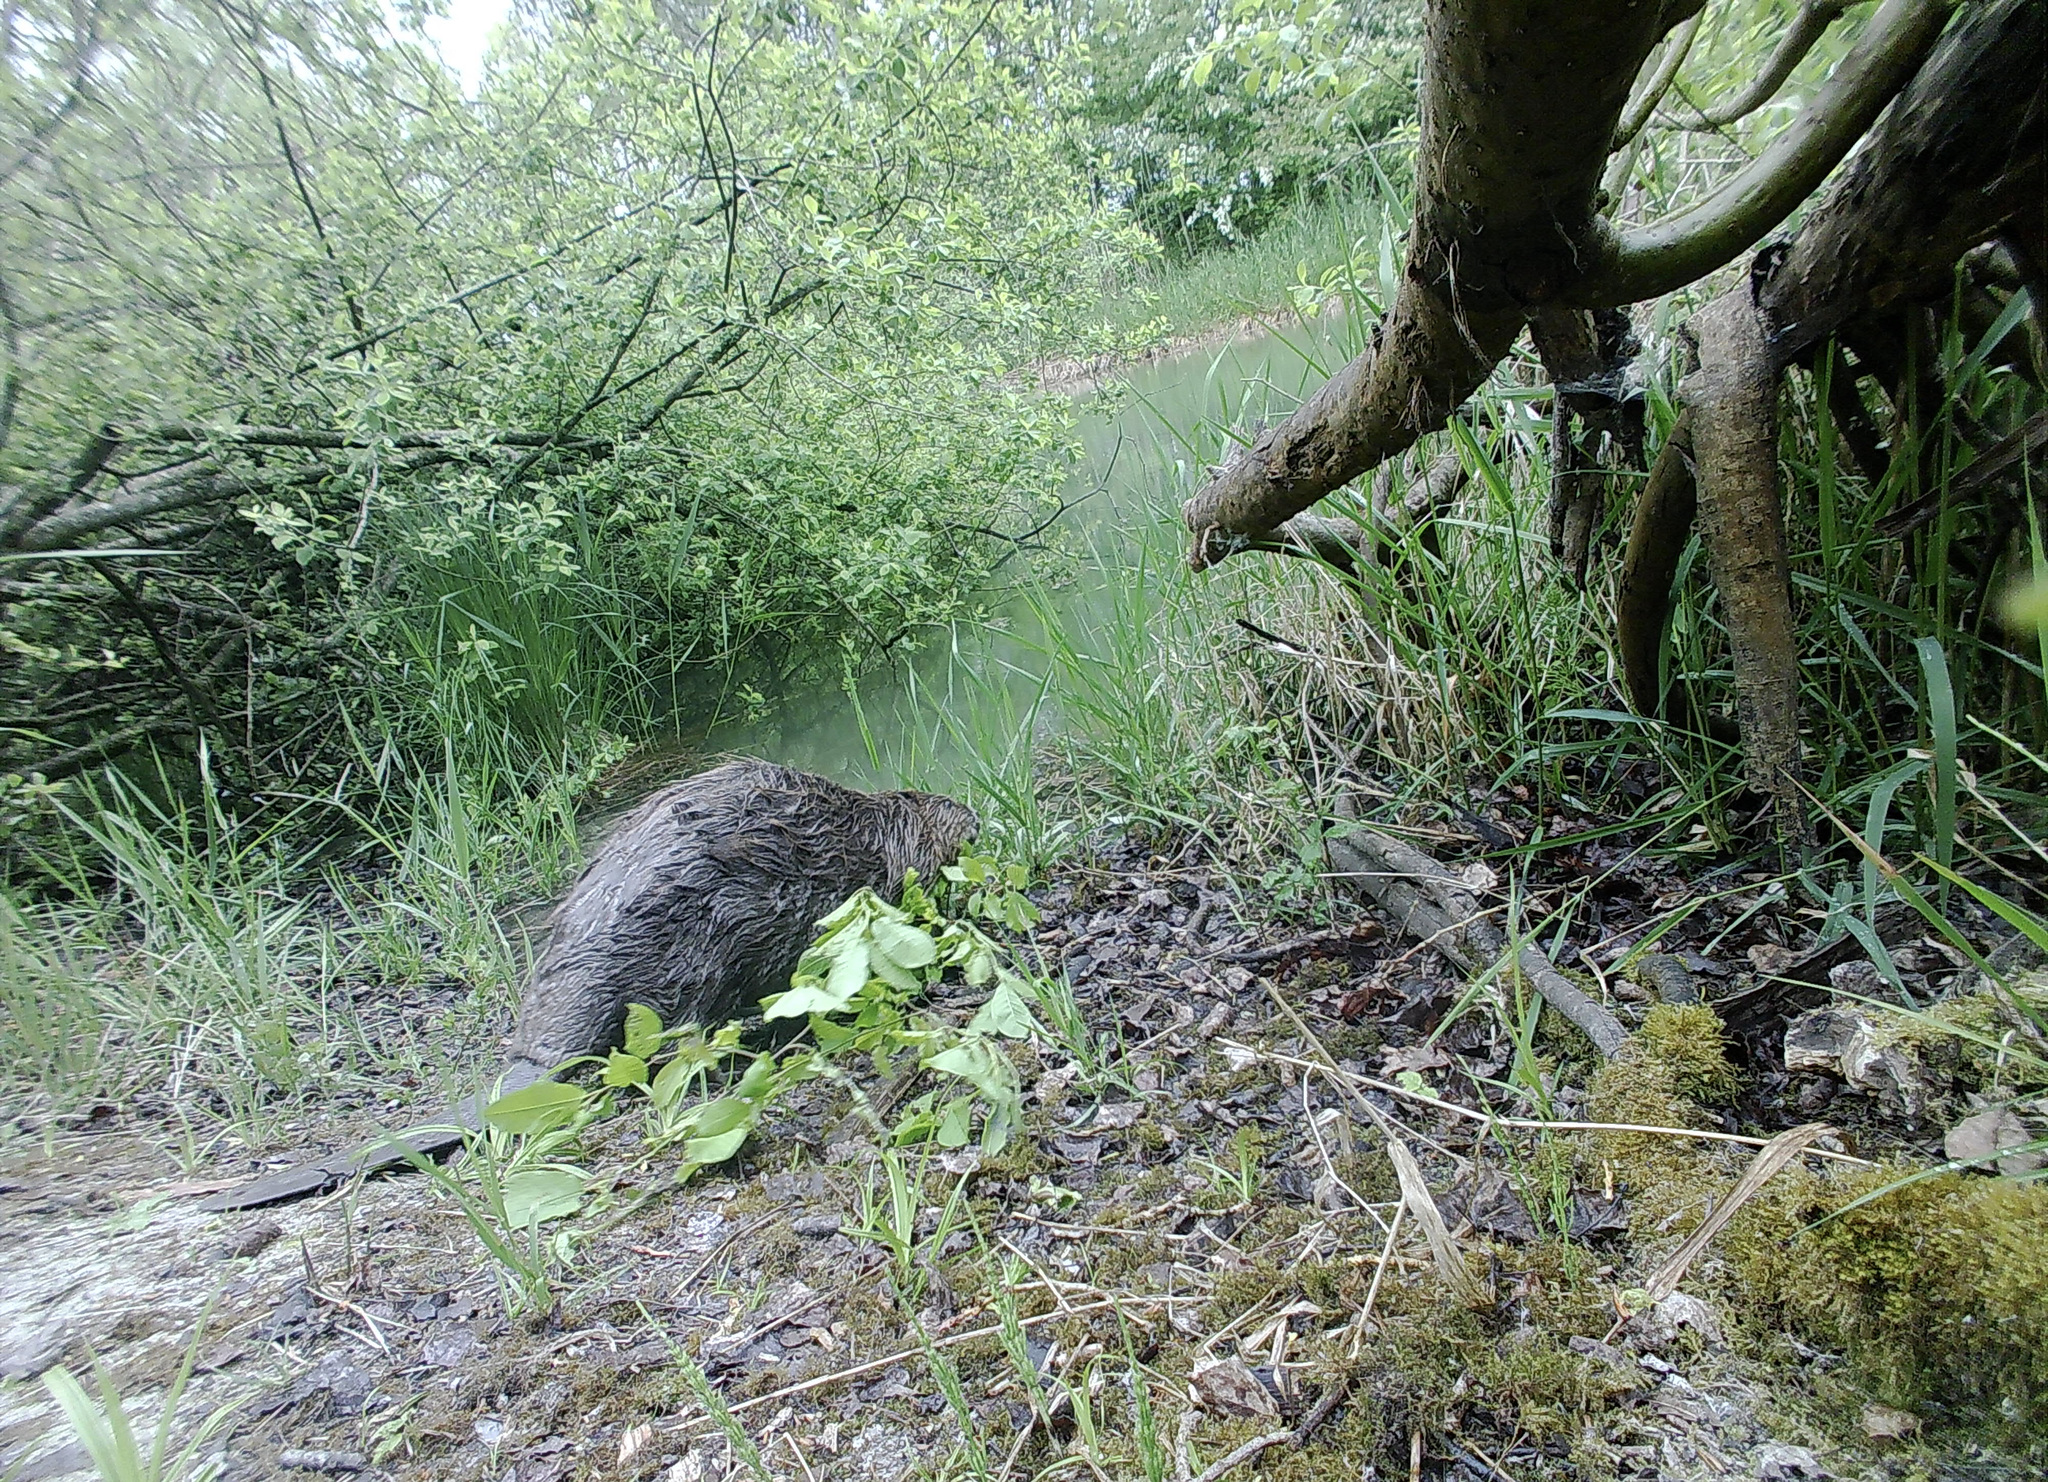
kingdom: Animalia
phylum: Chordata
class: Mammalia
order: Rodentia
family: Castoridae
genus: Castor
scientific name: Castor fiber
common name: Eurasian beaver
